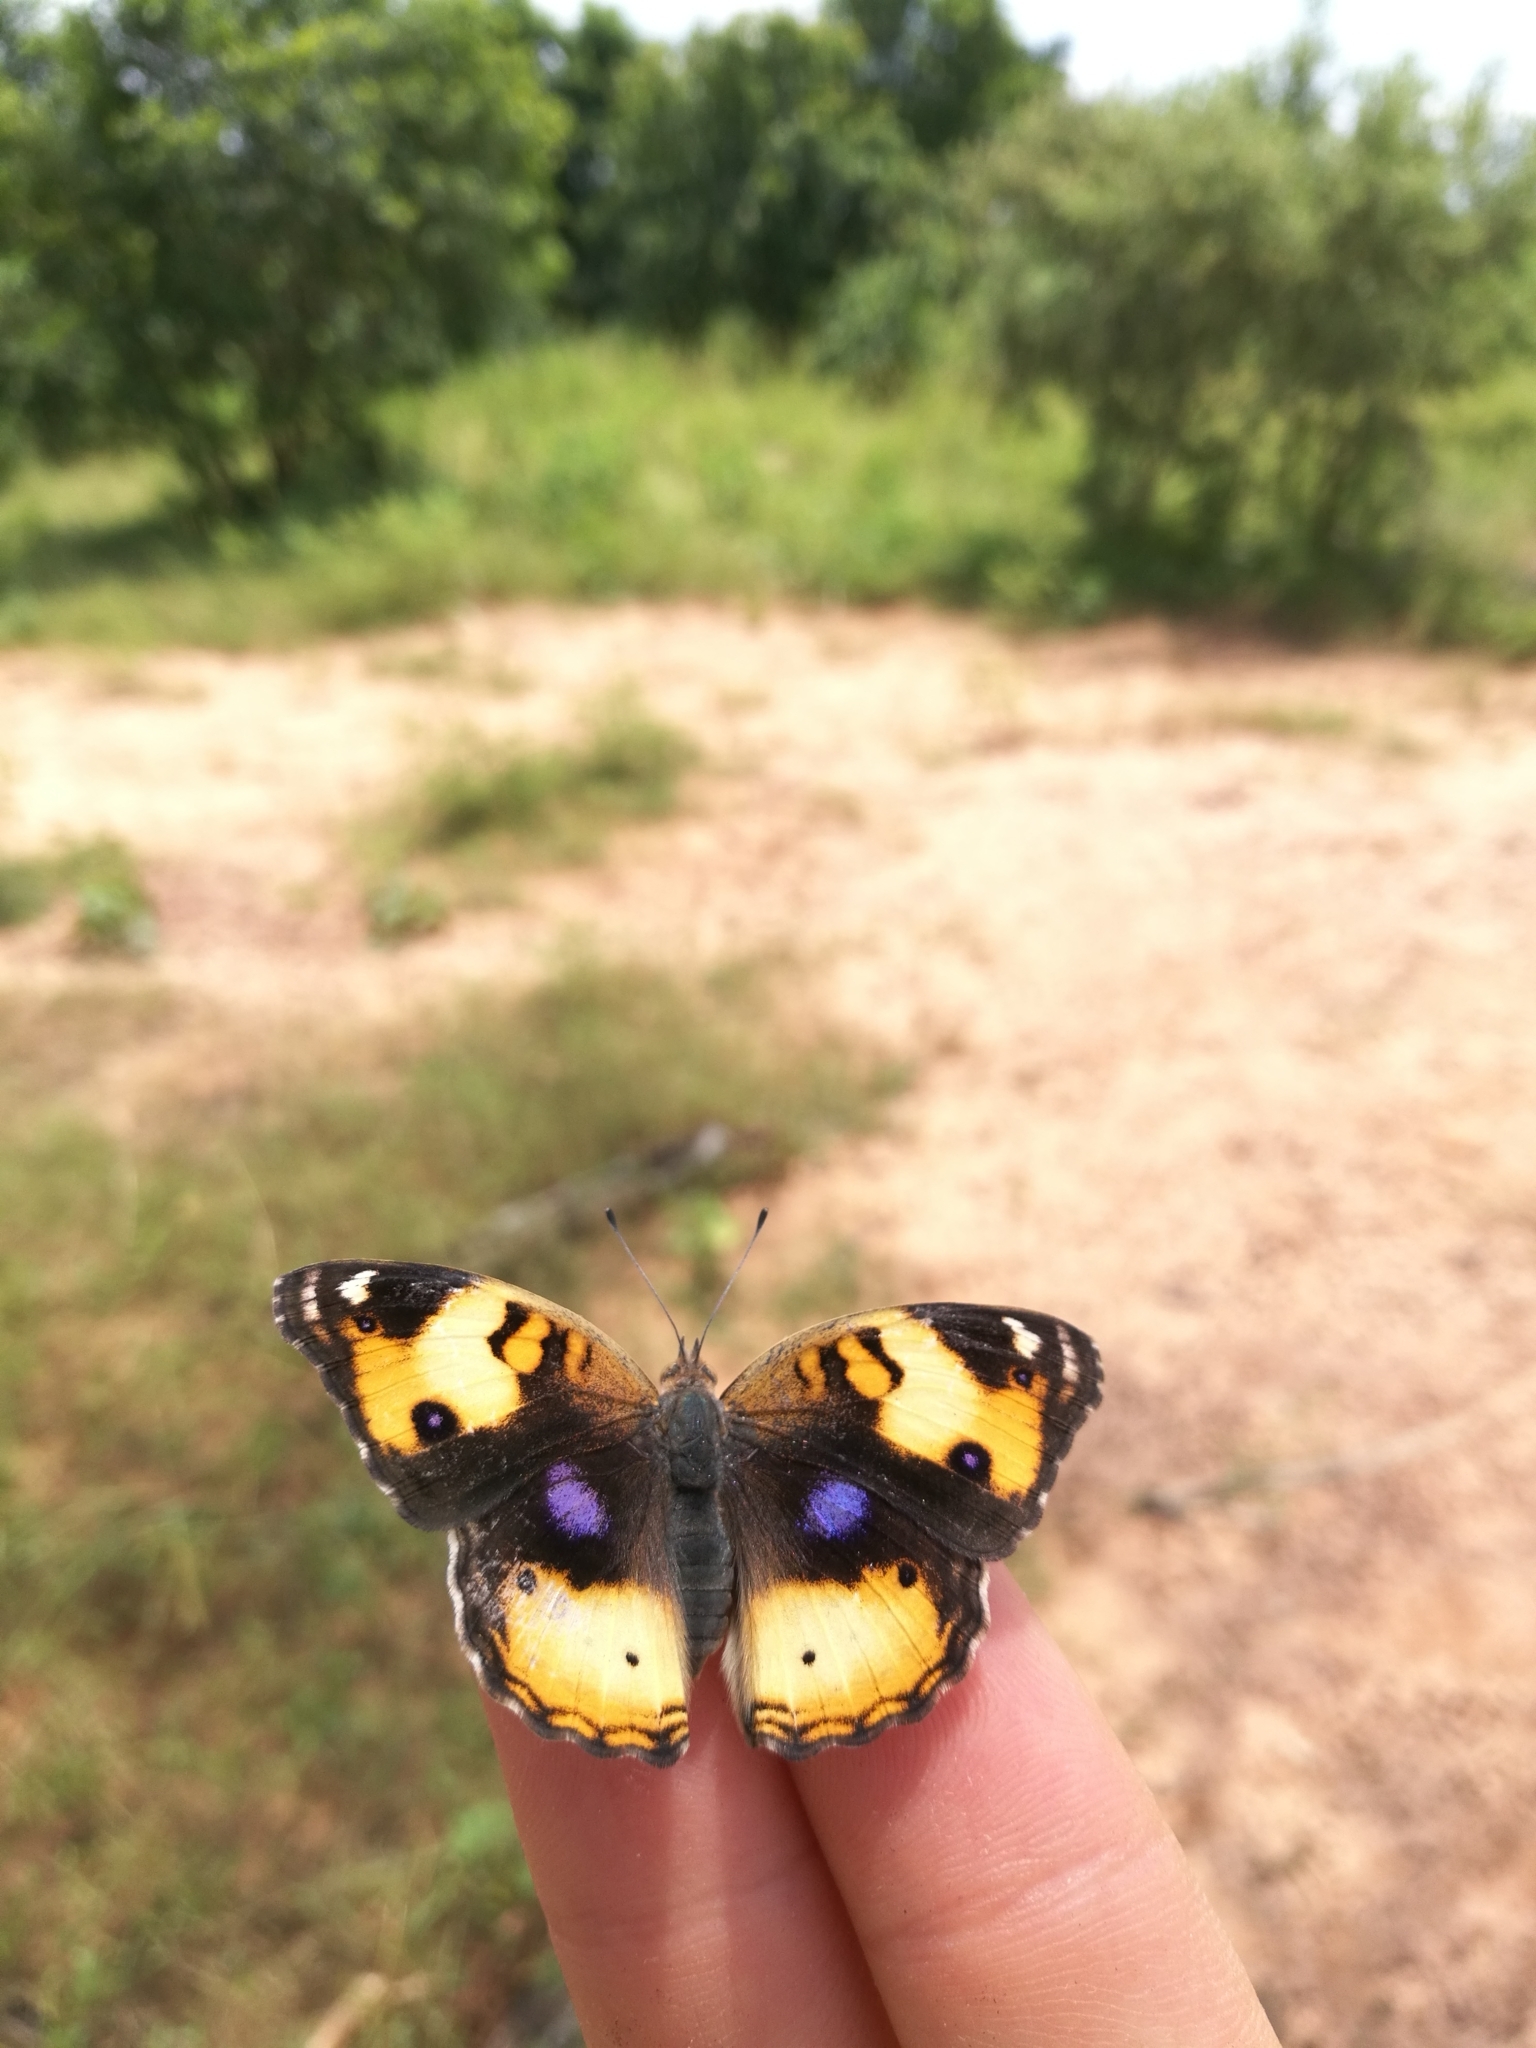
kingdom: Animalia
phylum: Arthropoda
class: Insecta
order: Lepidoptera
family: Nymphalidae
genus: Junonia
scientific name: Junonia hierta
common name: Yellow pansy
